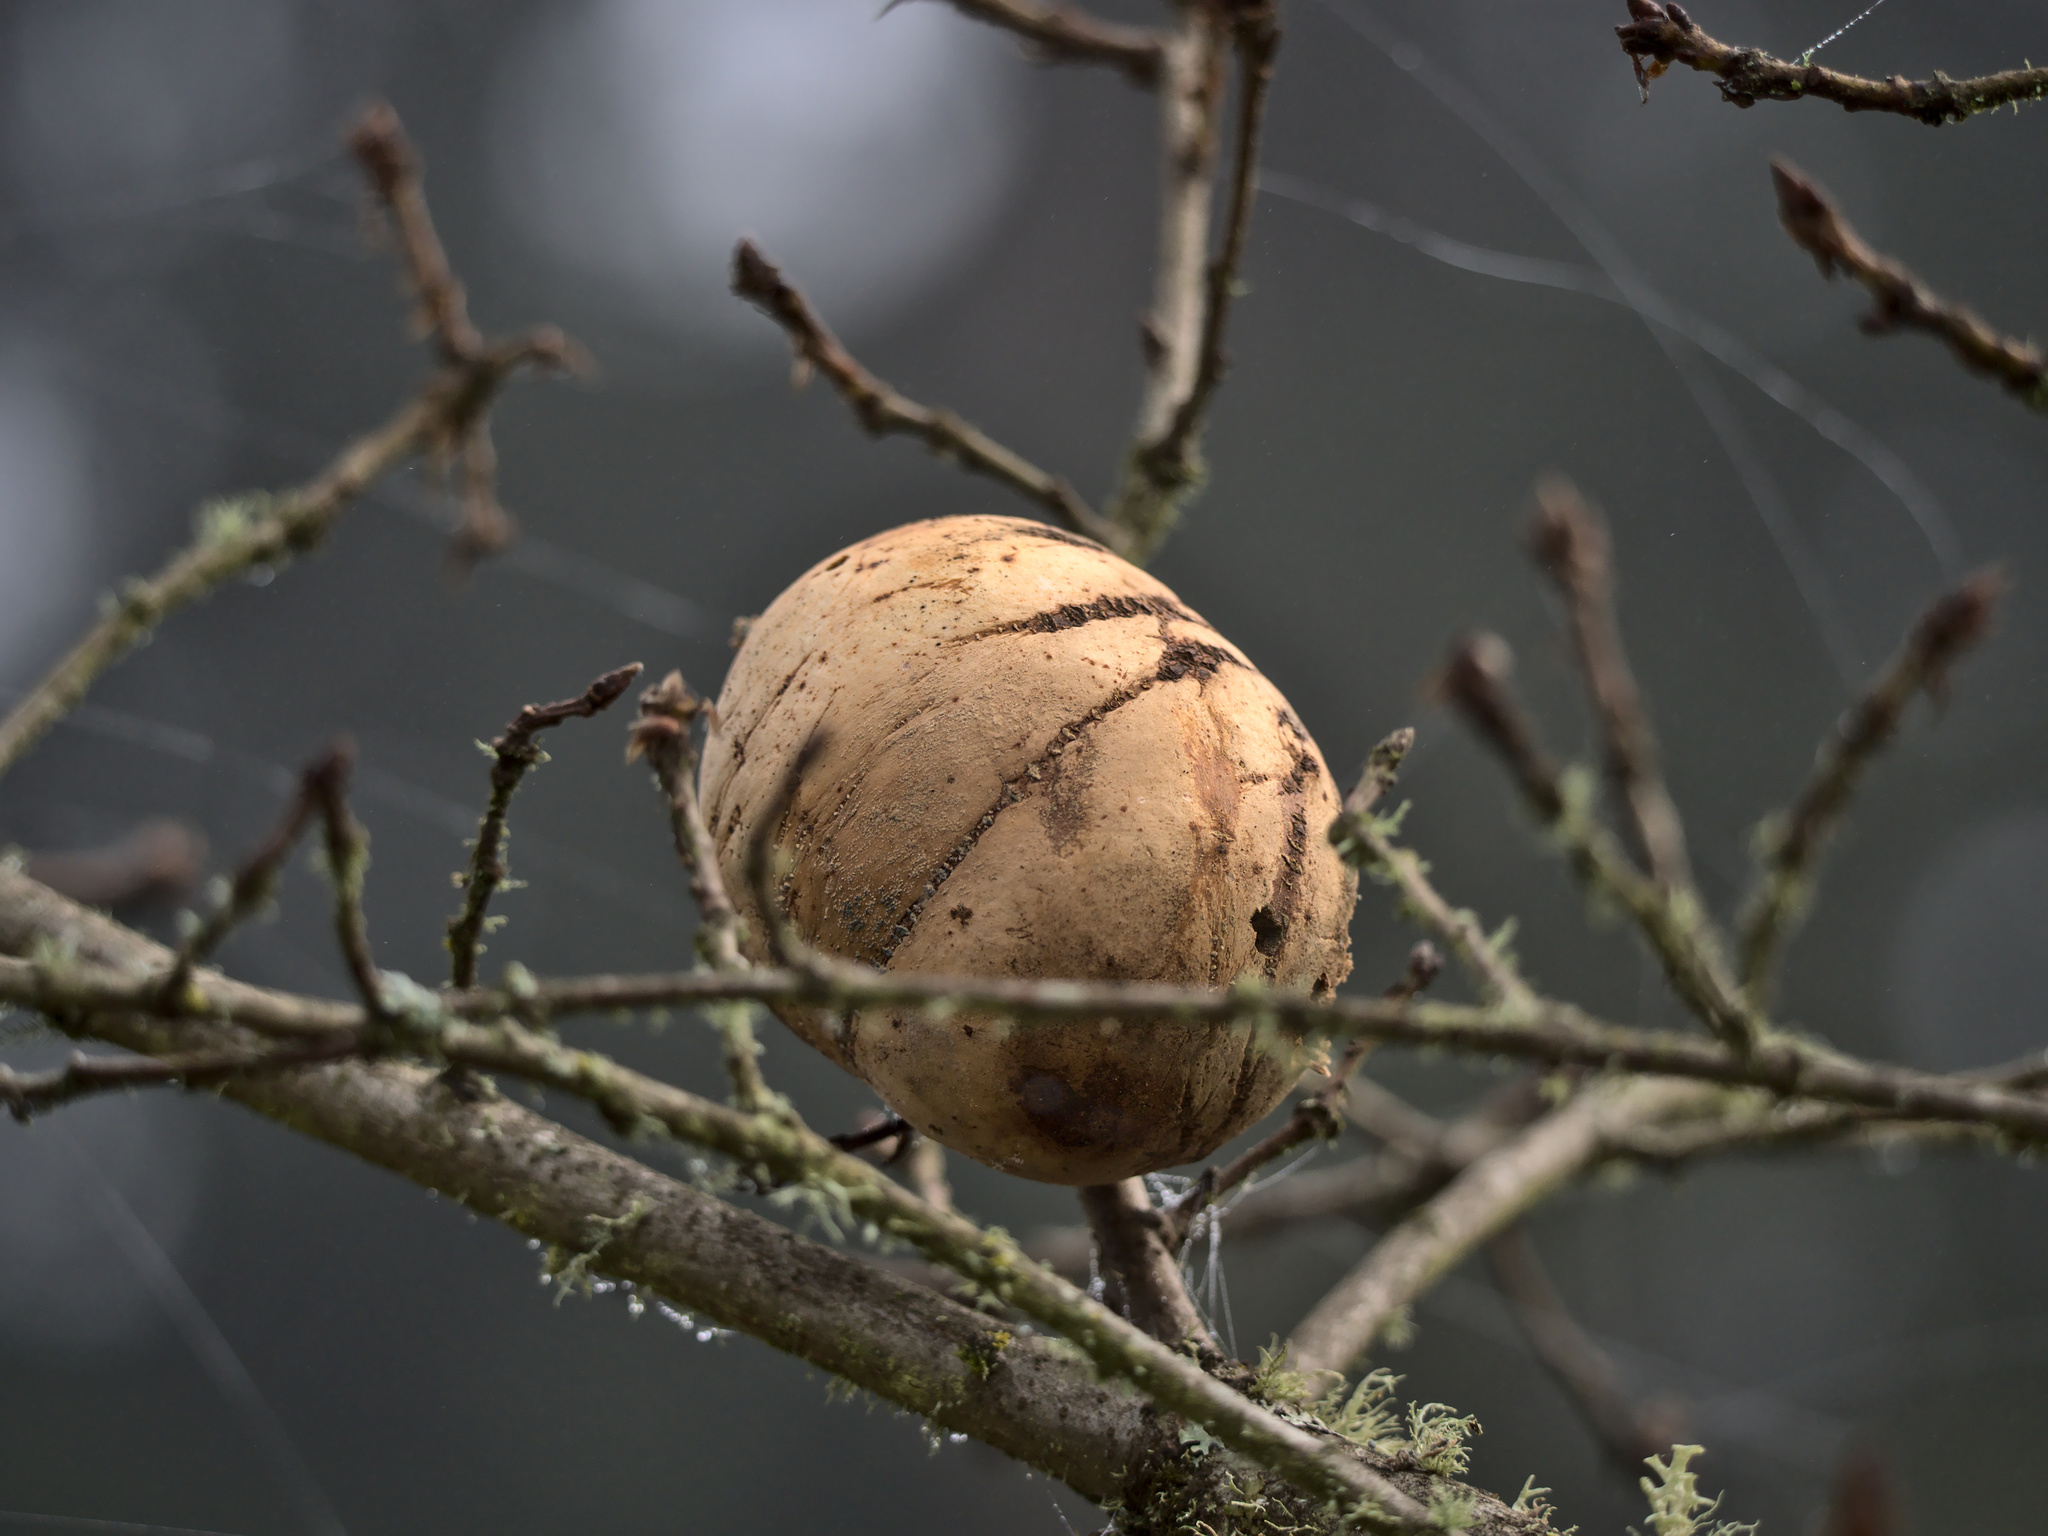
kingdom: Animalia
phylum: Arthropoda
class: Insecta
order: Hymenoptera
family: Cynipidae
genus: Andricus
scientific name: Andricus quercuscalifornicus
